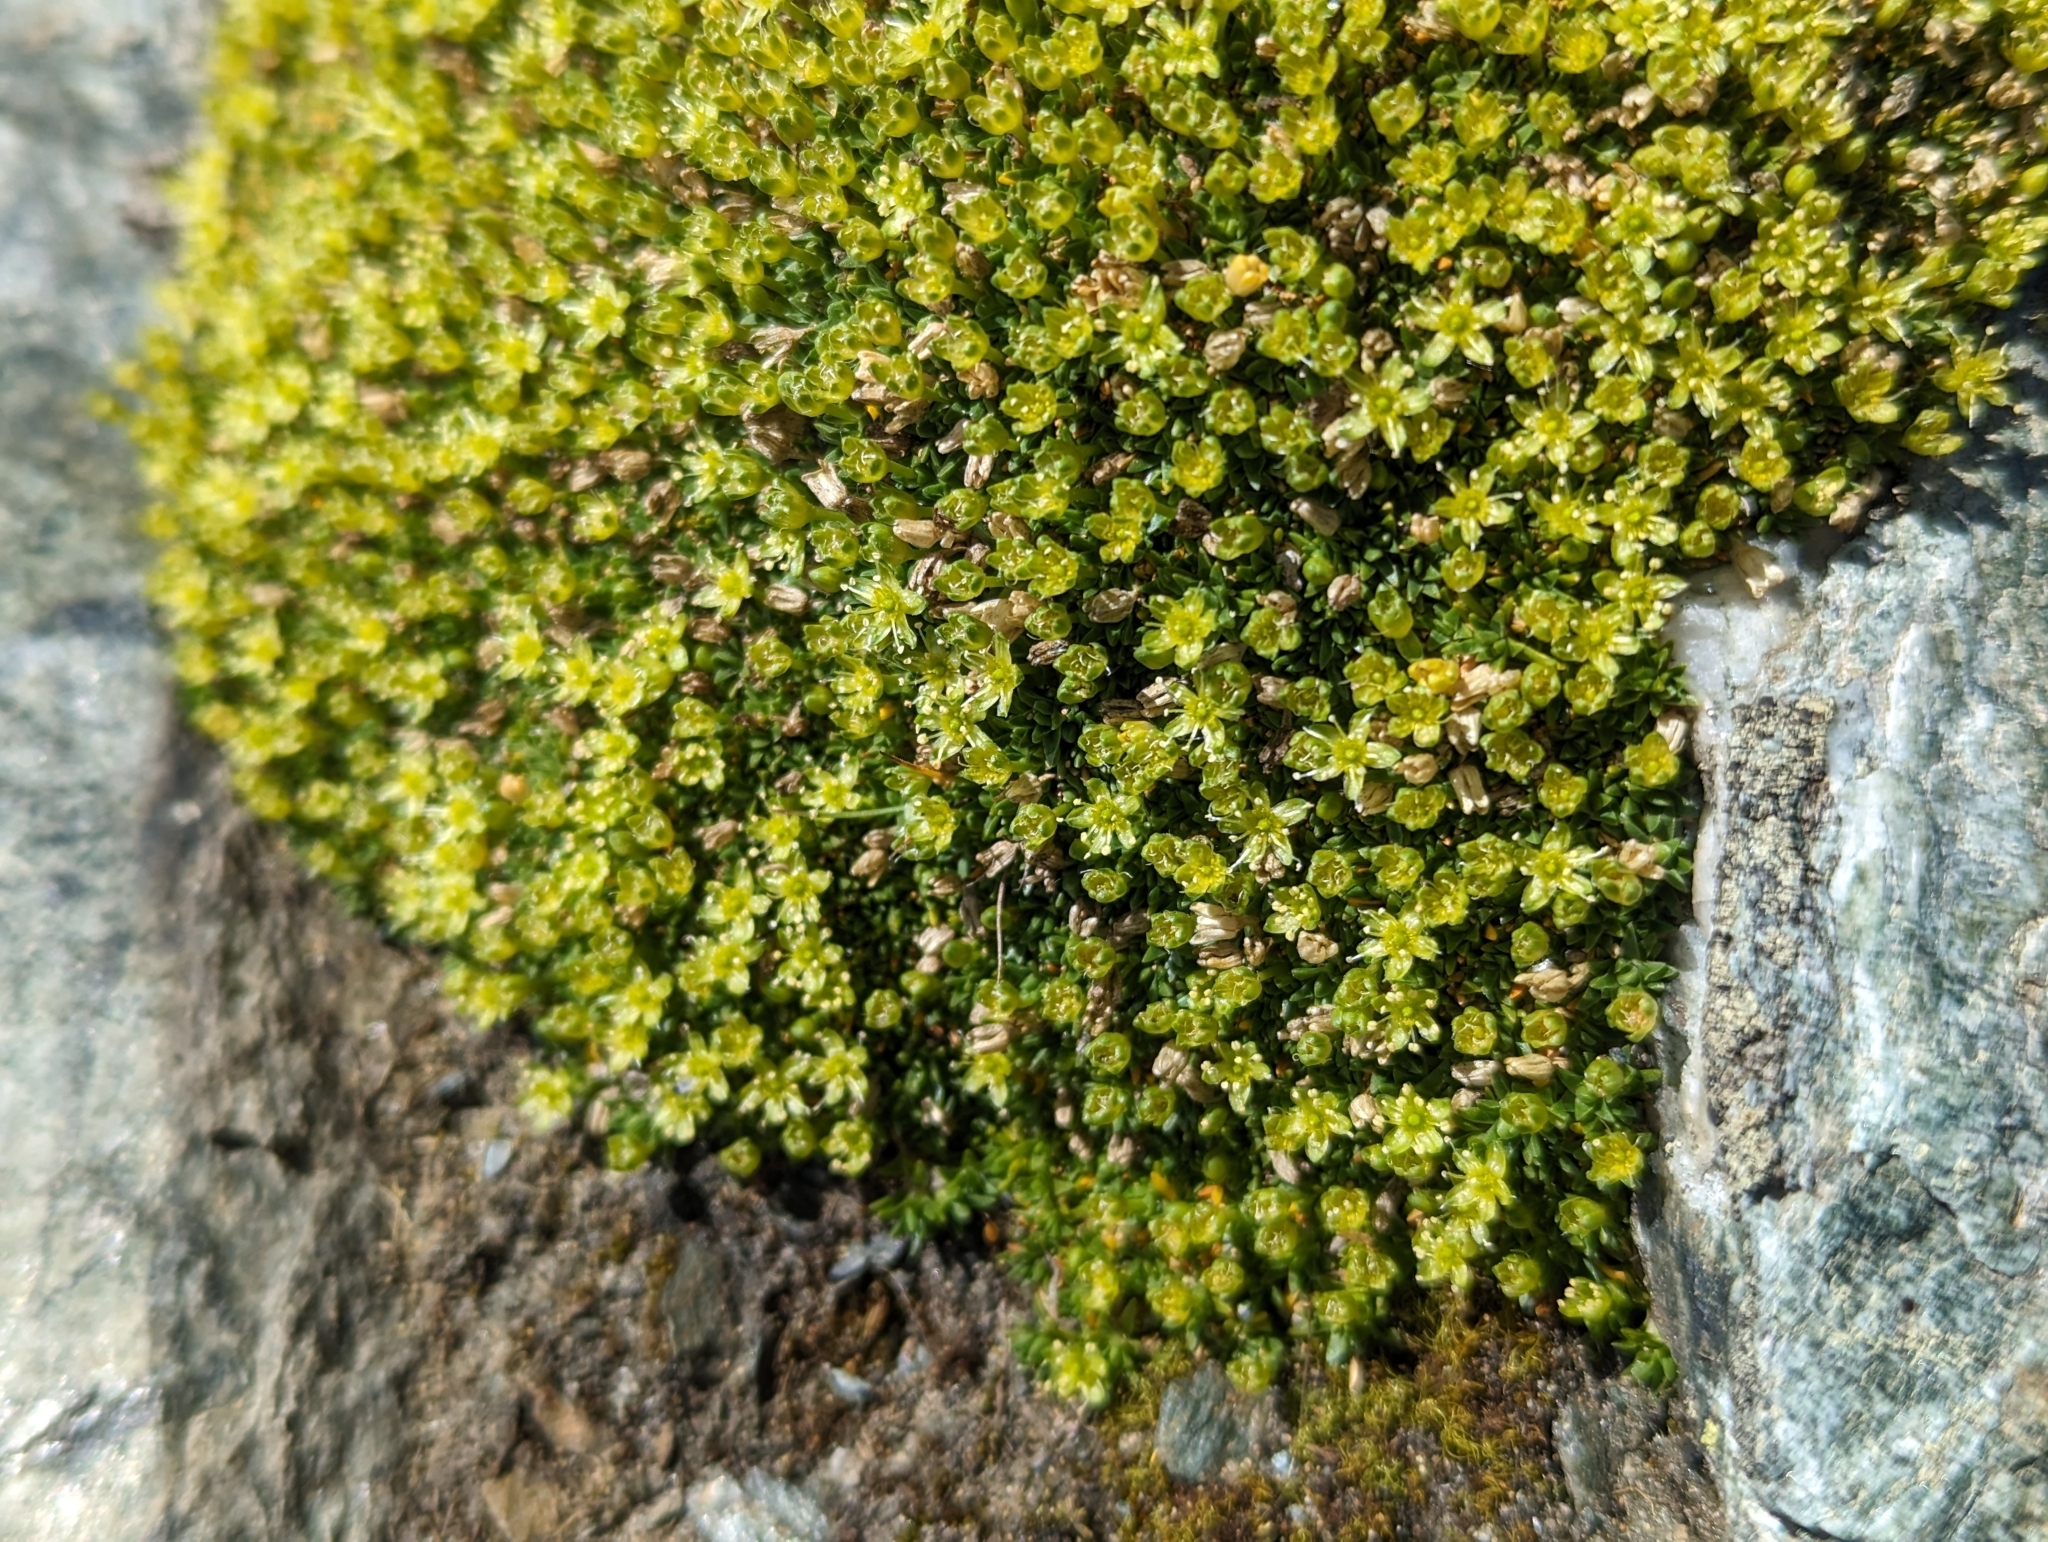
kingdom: Plantae
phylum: Tracheophyta
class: Magnoliopsida
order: Caryophyllales
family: Caryophyllaceae
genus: Cherleria
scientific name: Cherleria sedoides
